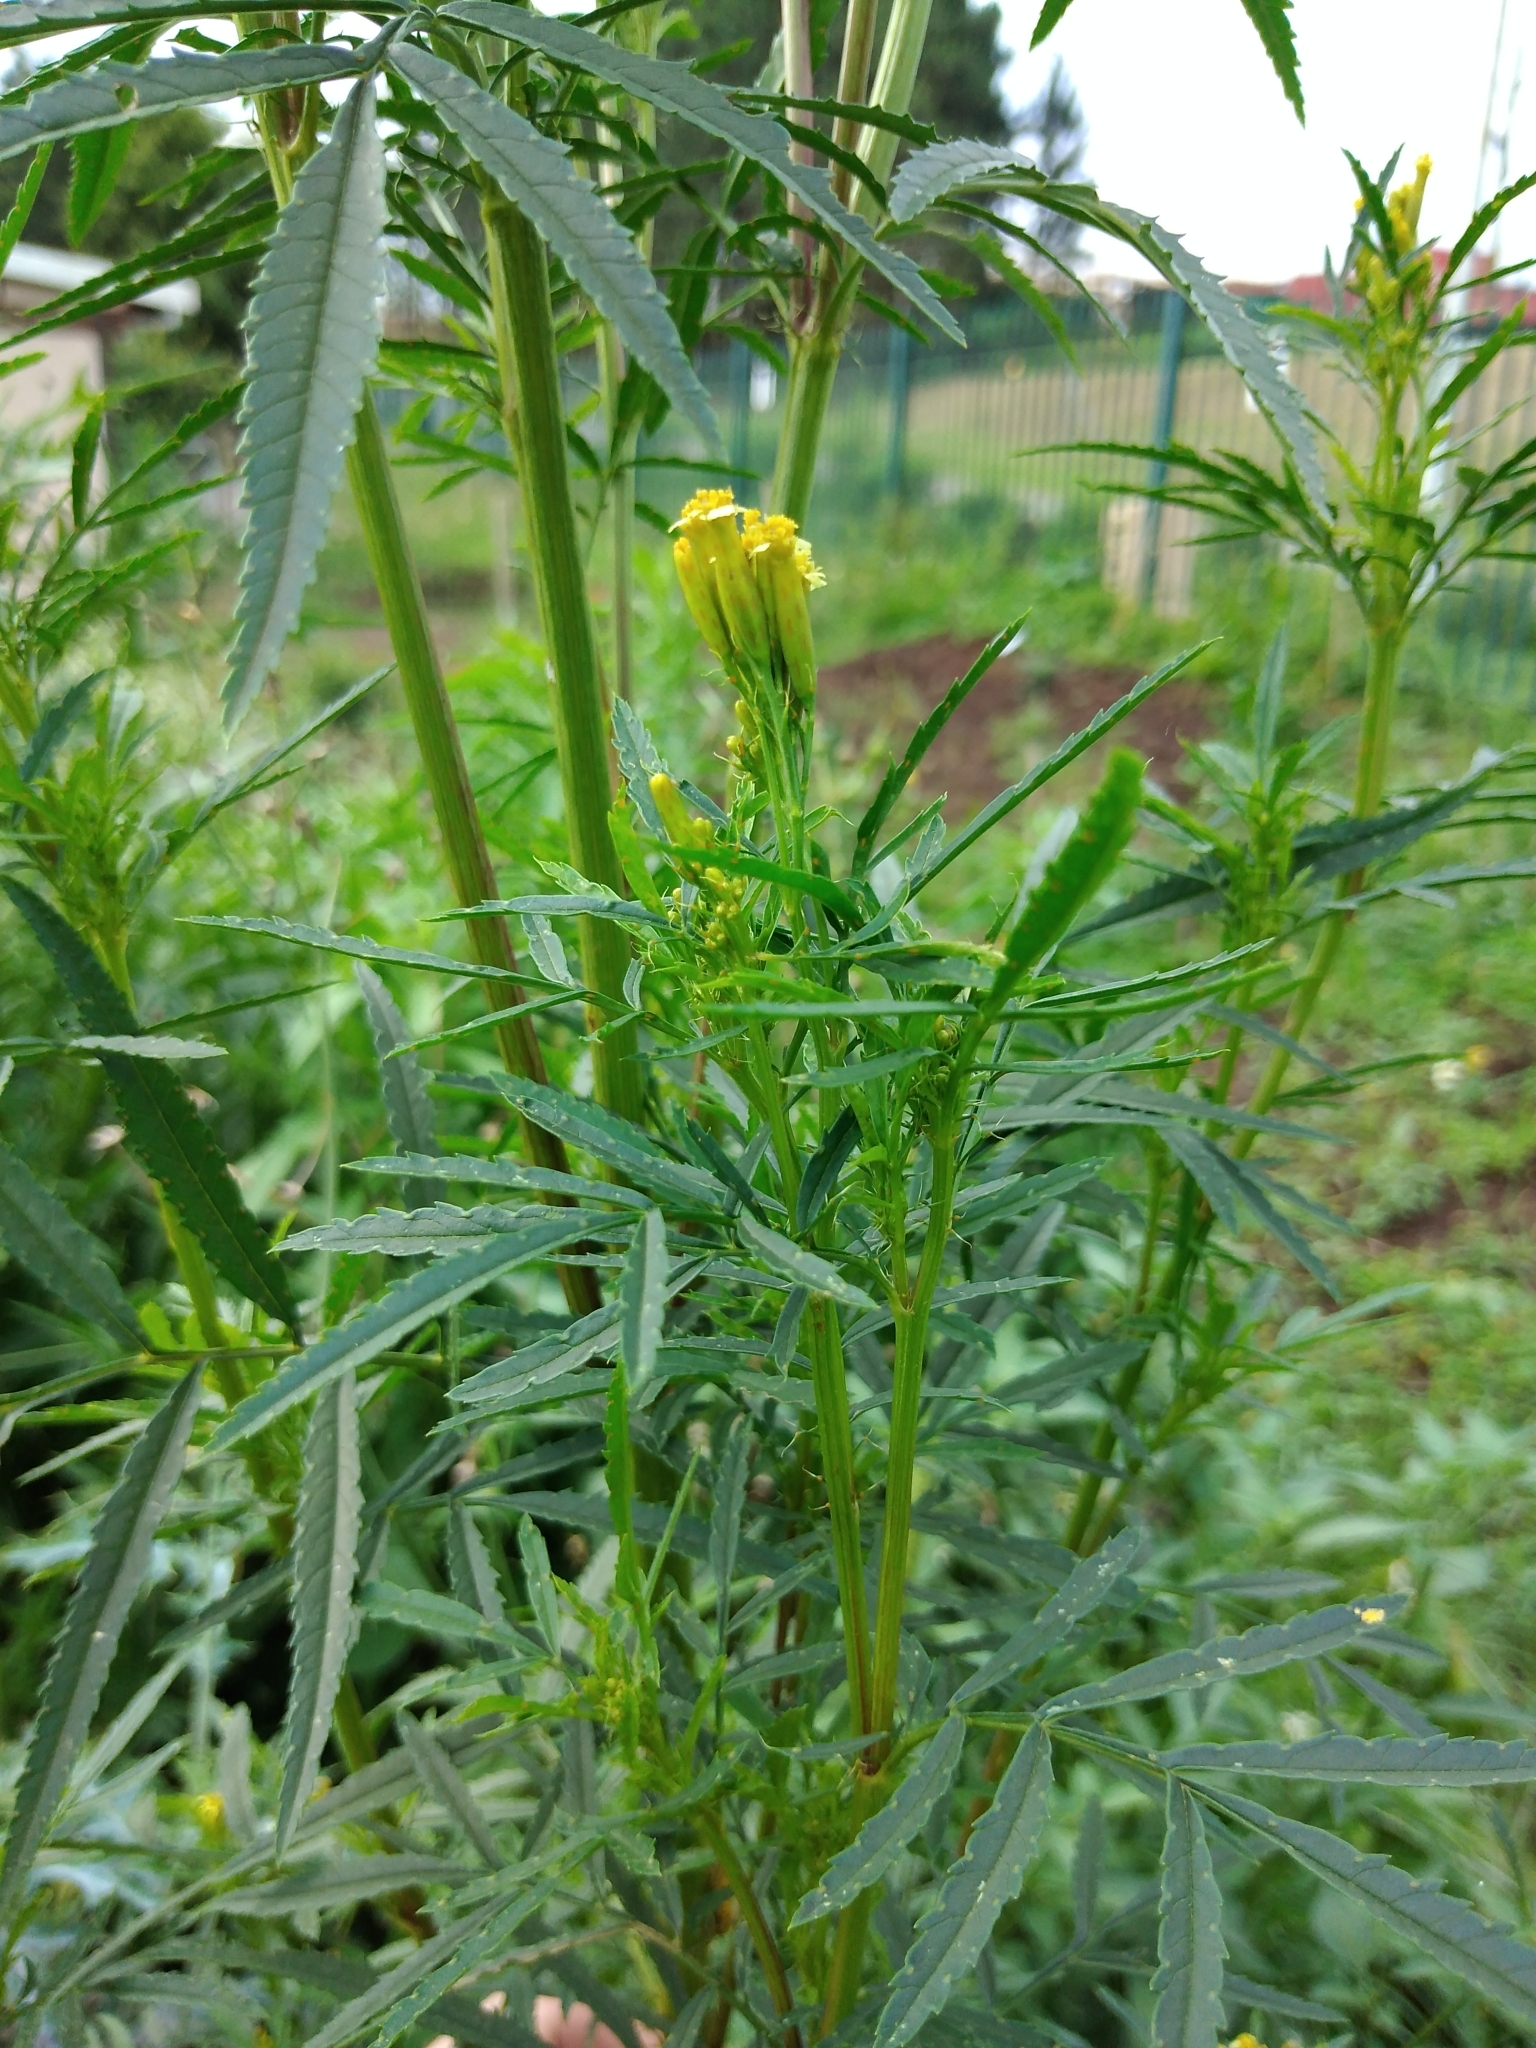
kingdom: Plantae
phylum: Tracheophyta
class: Magnoliopsida
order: Asterales
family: Asteraceae
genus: Tagetes
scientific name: Tagetes minuta
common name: Muster john henry
